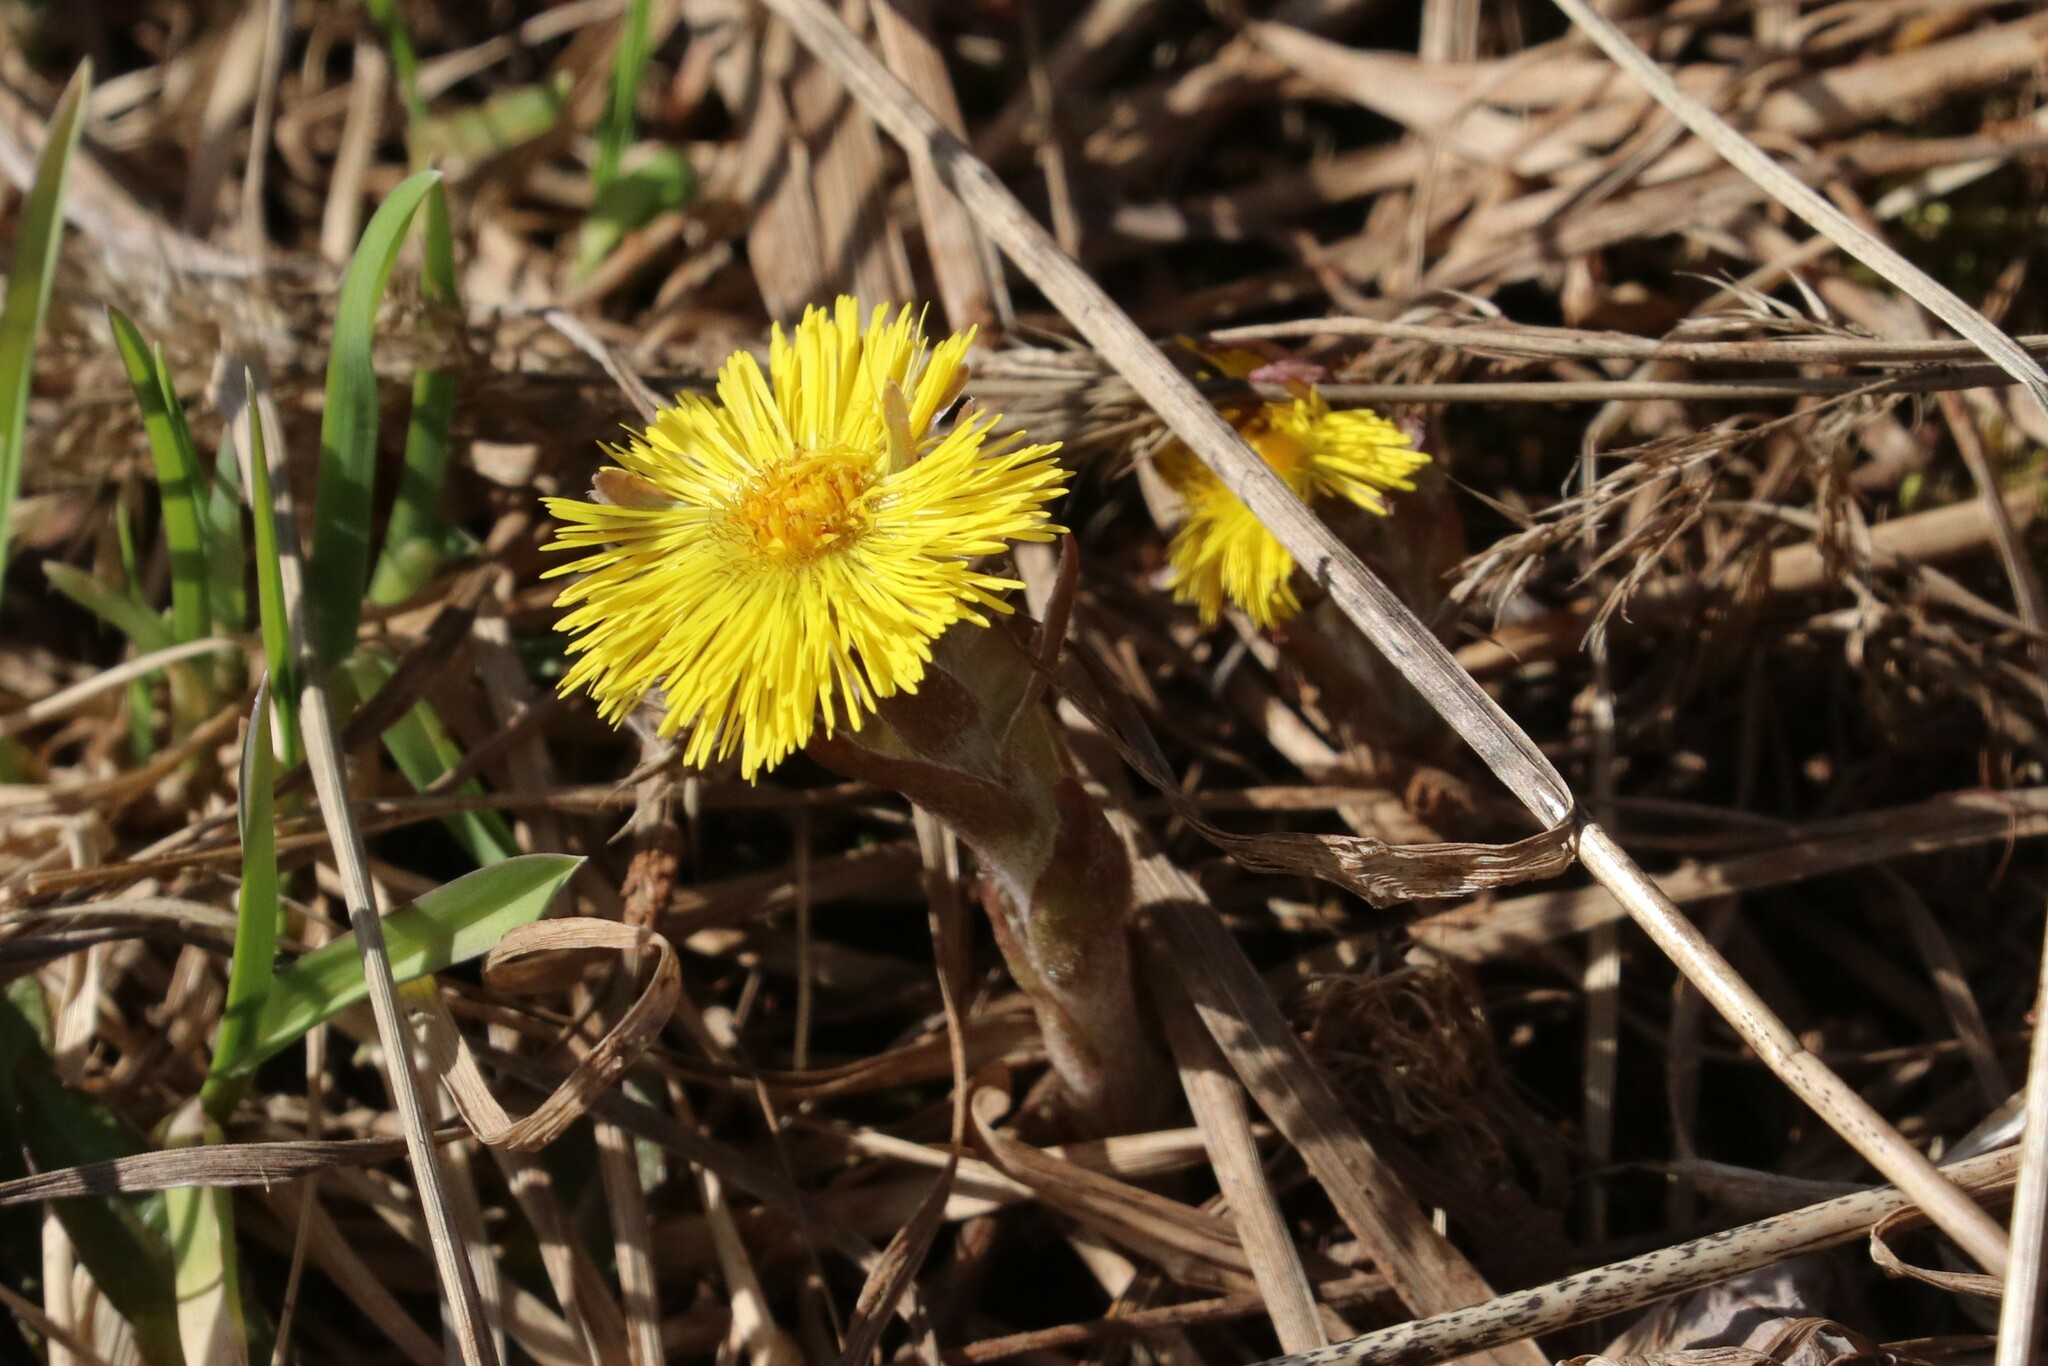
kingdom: Plantae
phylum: Tracheophyta
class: Magnoliopsida
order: Asterales
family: Asteraceae
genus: Tussilago
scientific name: Tussilago farfara
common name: Coltsfoot
